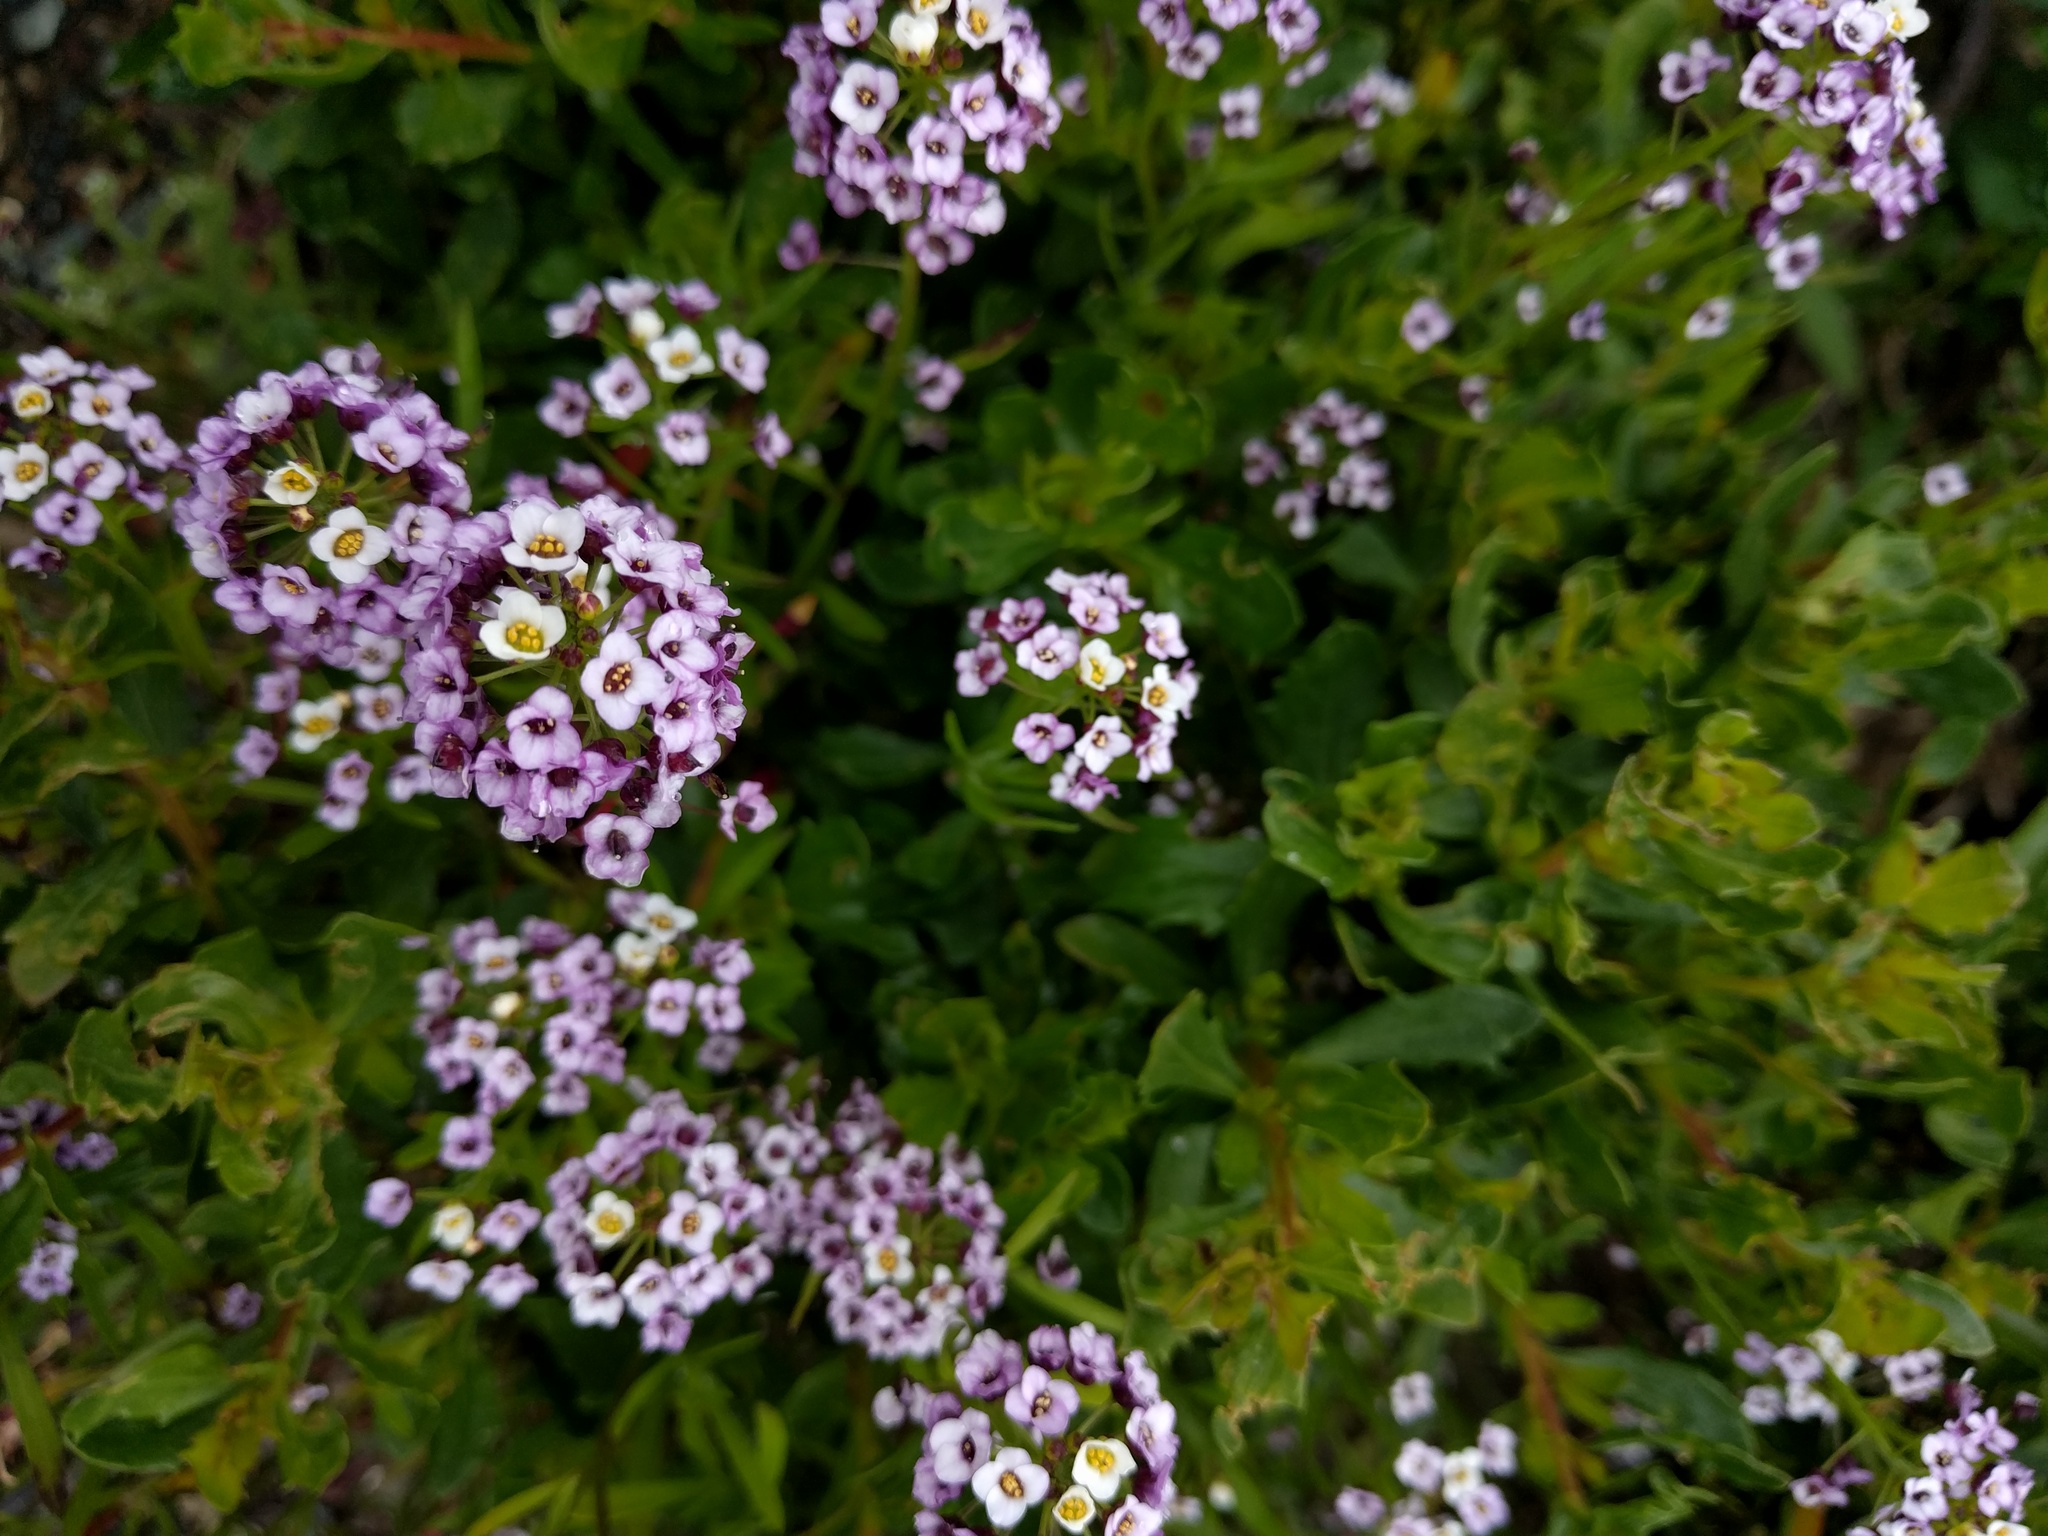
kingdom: Plantae
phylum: Tracheophyta
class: Magnoliopsida
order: Brassicales
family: Brassicaceae
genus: Lobularia
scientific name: Lobularia maritima
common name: Sweet alison
